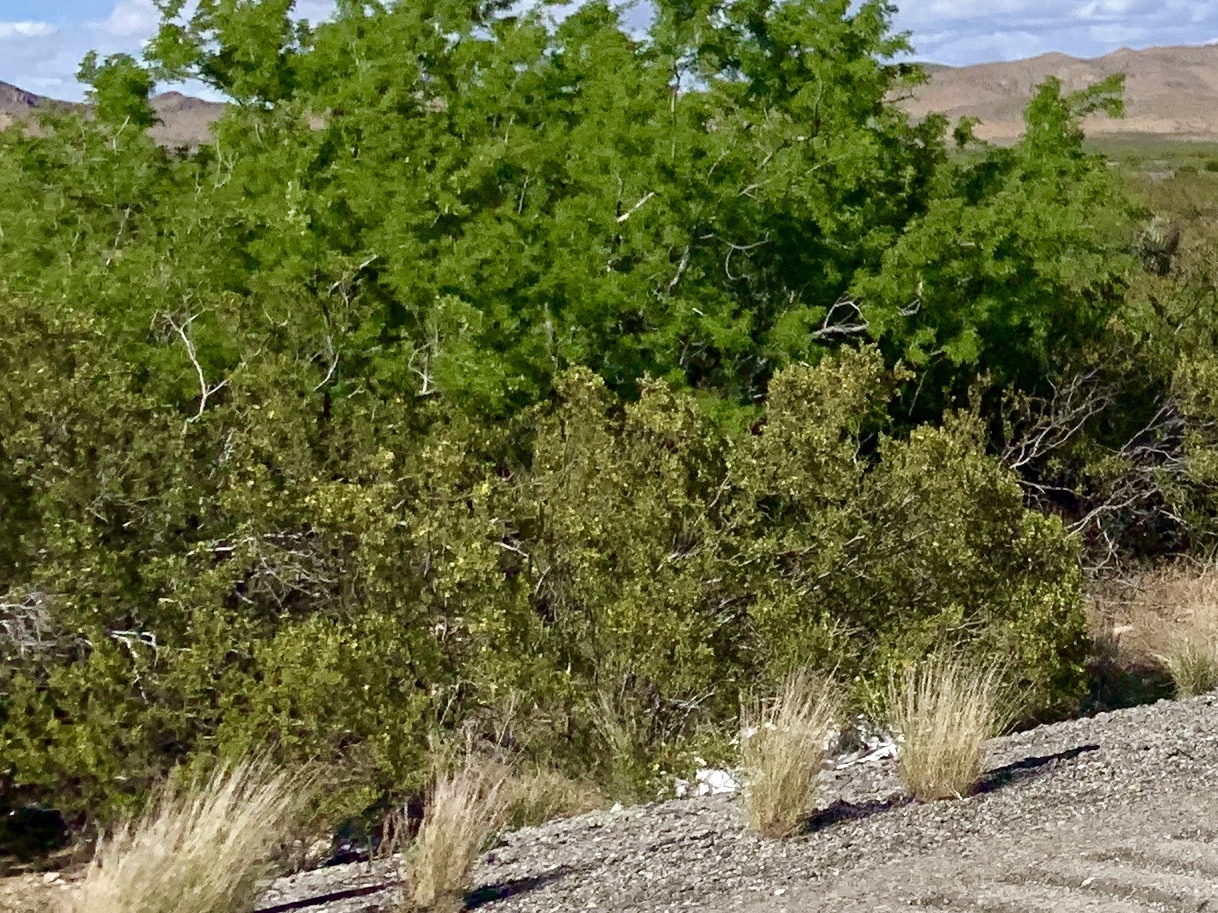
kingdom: Plantae
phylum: Tracheophyta
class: Magnoliopsida
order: Zygophyllales
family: Zygophyllaceae
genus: Larrea
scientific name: Larrea tridentata
